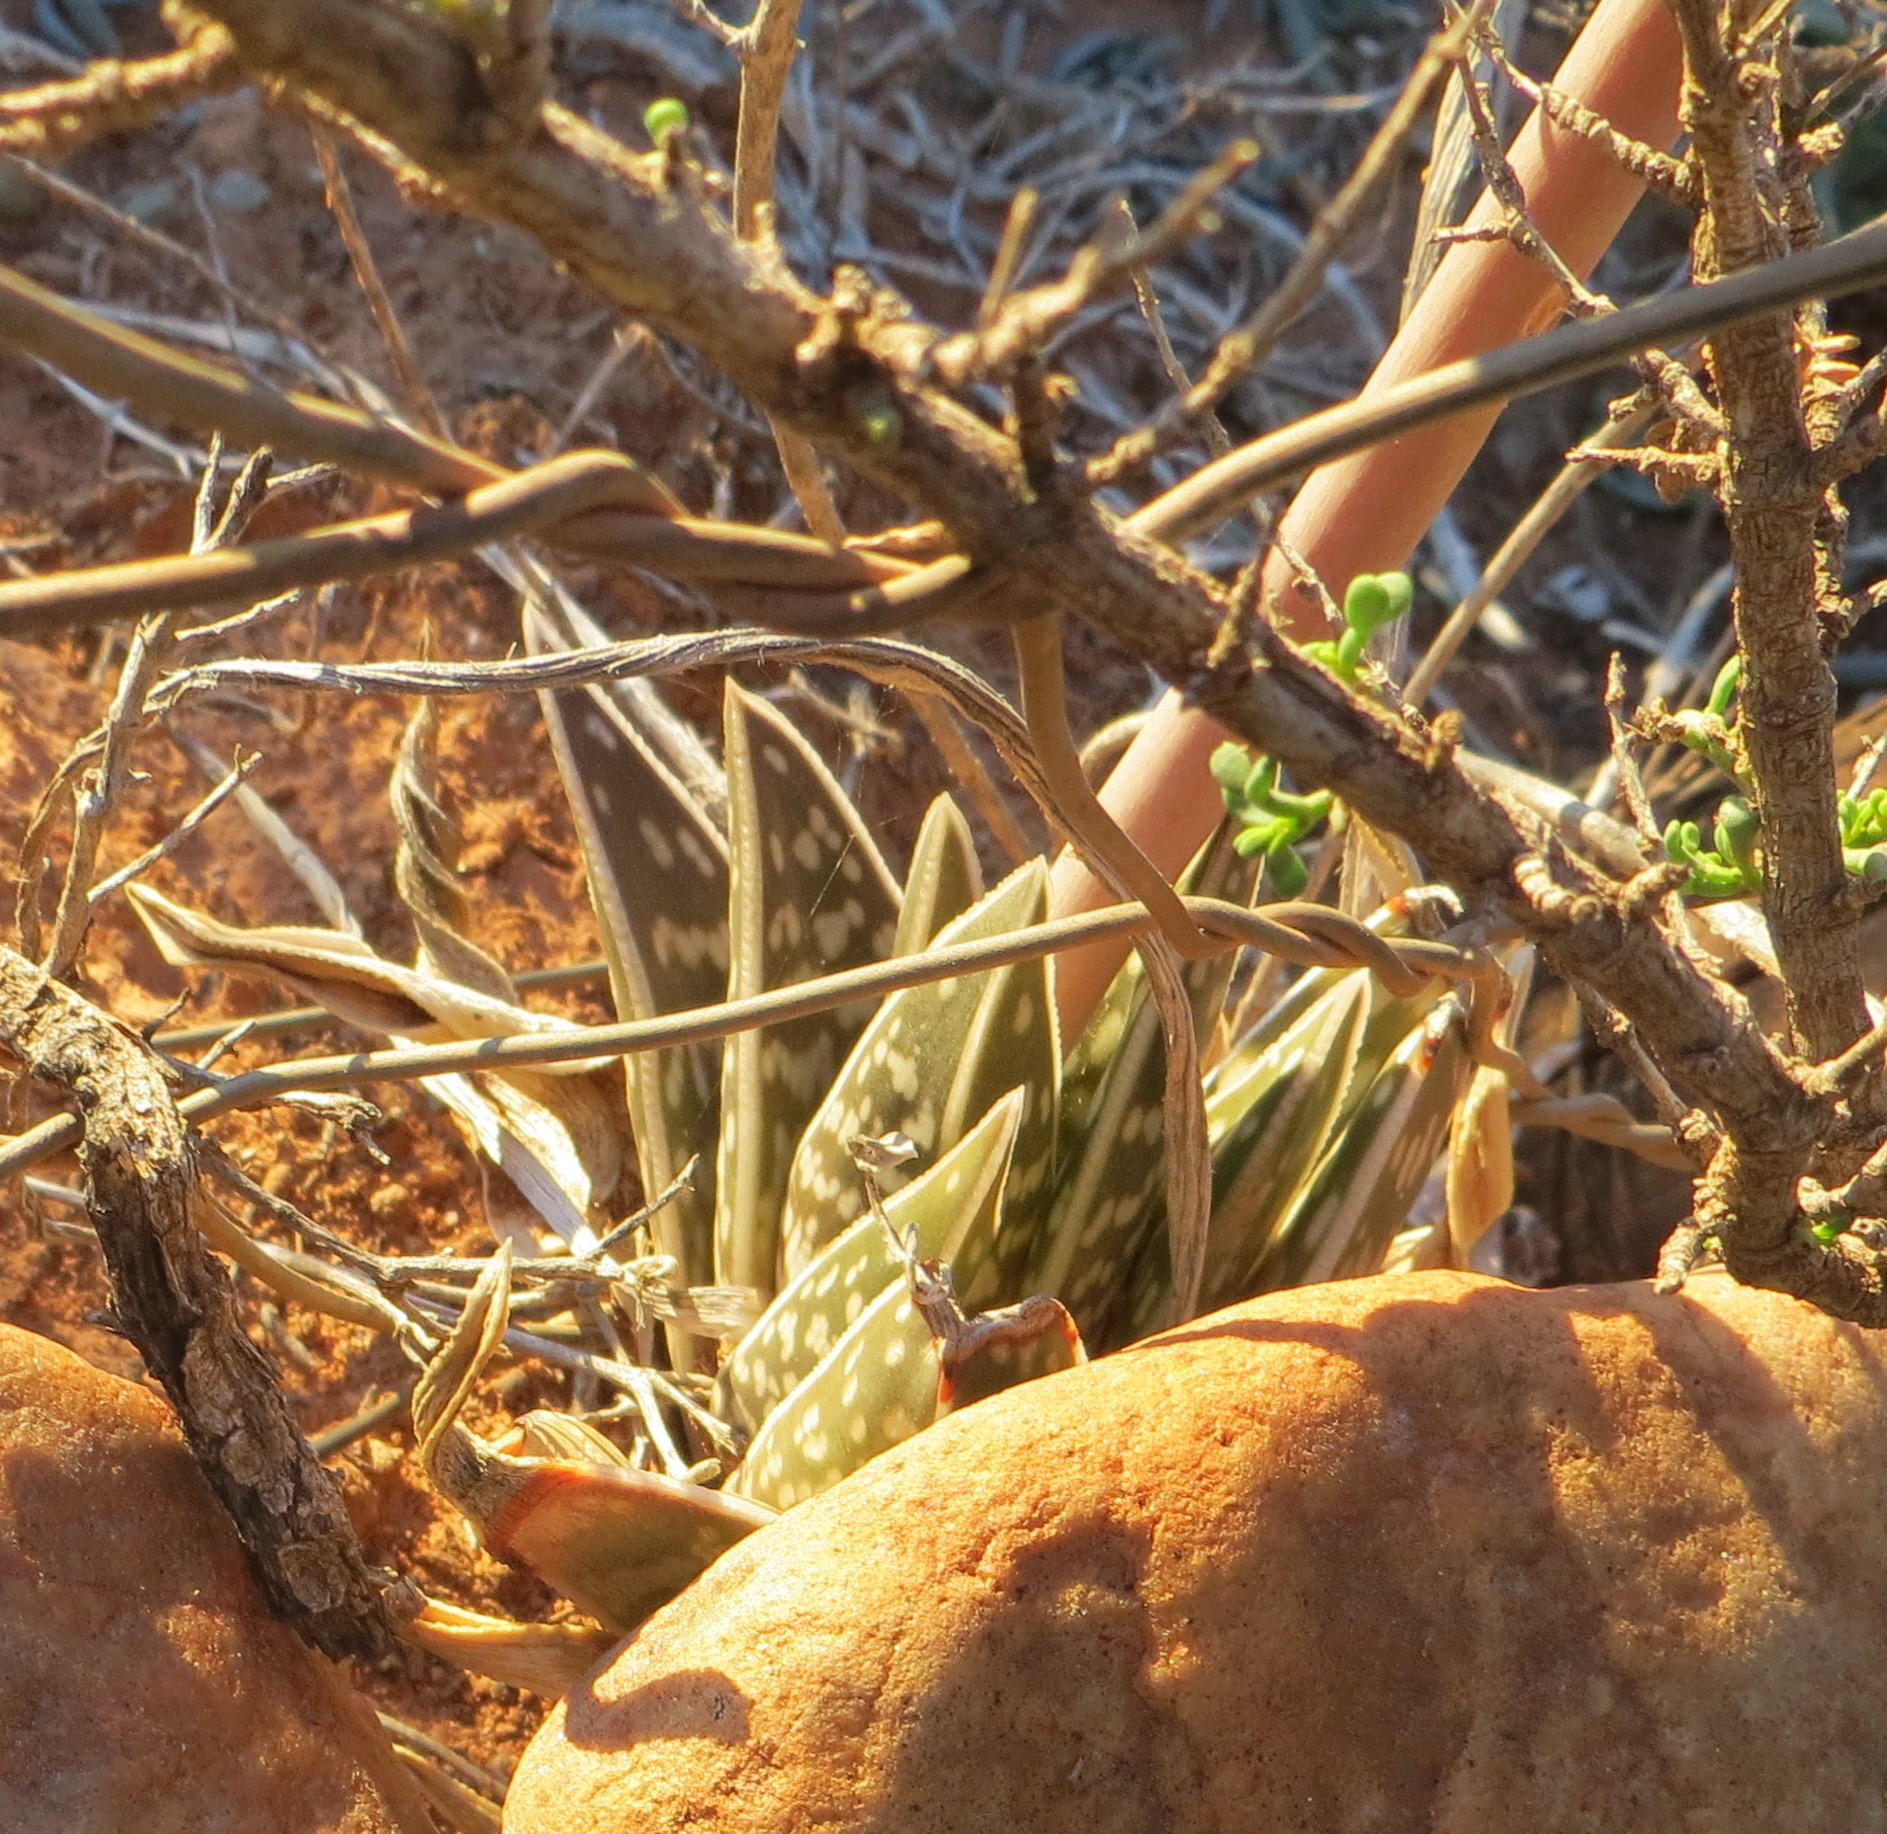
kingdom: Plantae
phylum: Tracheophyta
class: Liliopsida
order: Asparagales
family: Asphodelaceae
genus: Gonialoe
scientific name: Gonialoe variegata
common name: Aloe variegata
